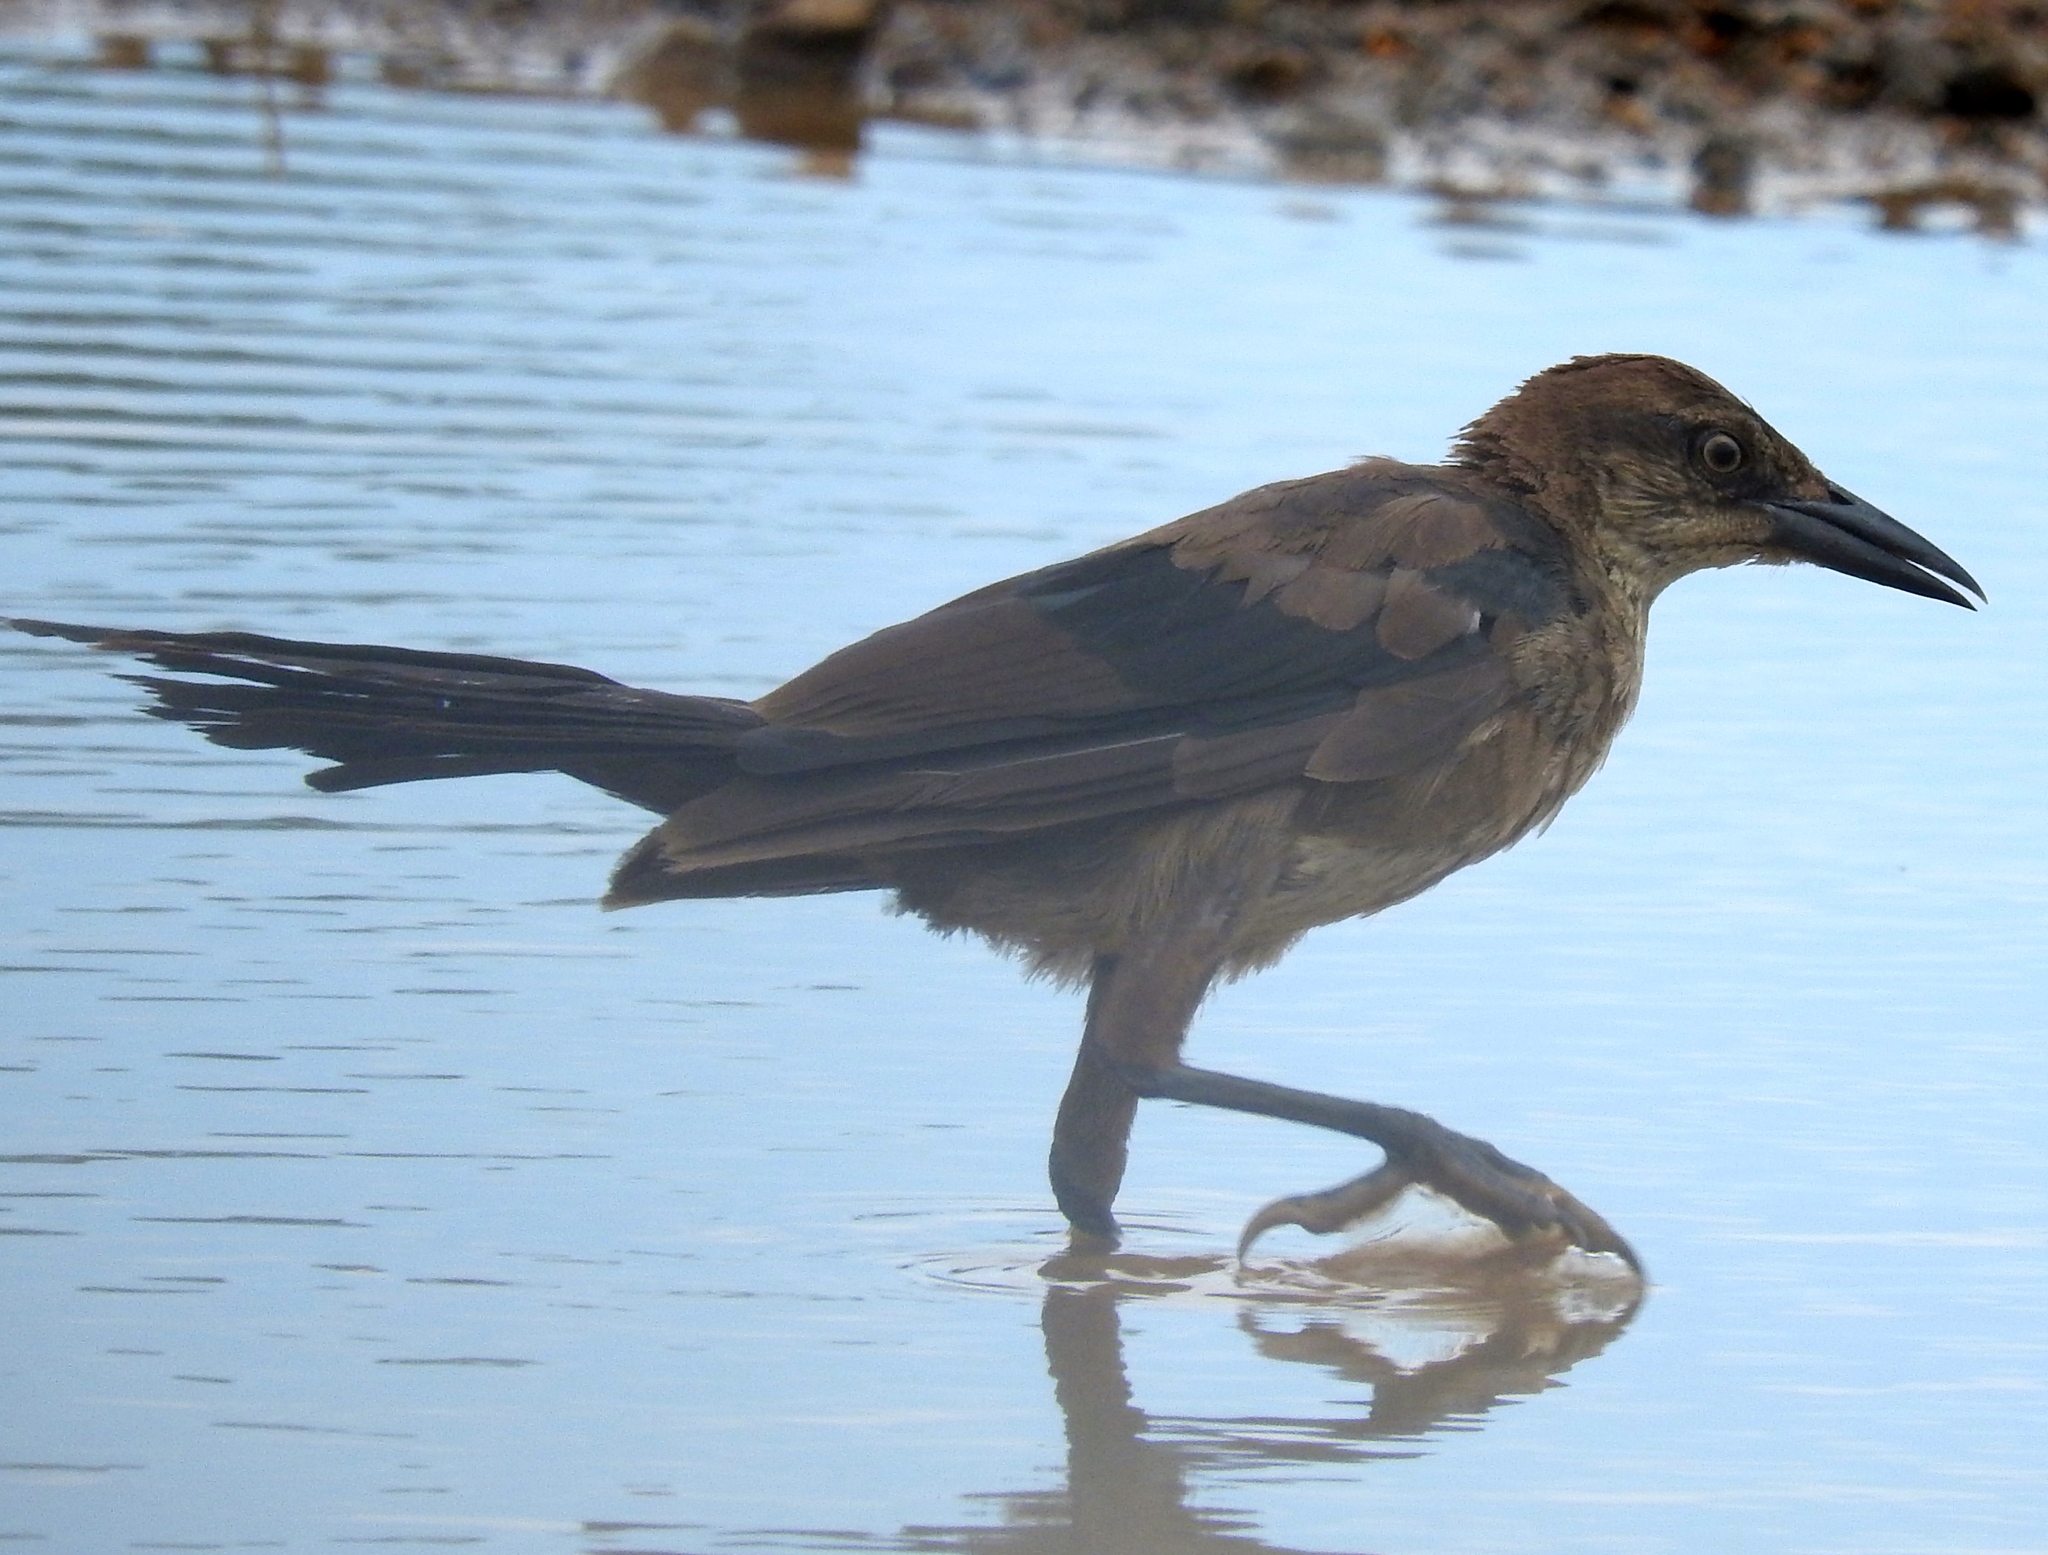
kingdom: Animalia
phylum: Chordata
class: Aves
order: Passeriformes
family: Icteridae
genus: Quiscalus
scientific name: Quiscalus mexicanus
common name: Great-tailed grackle
